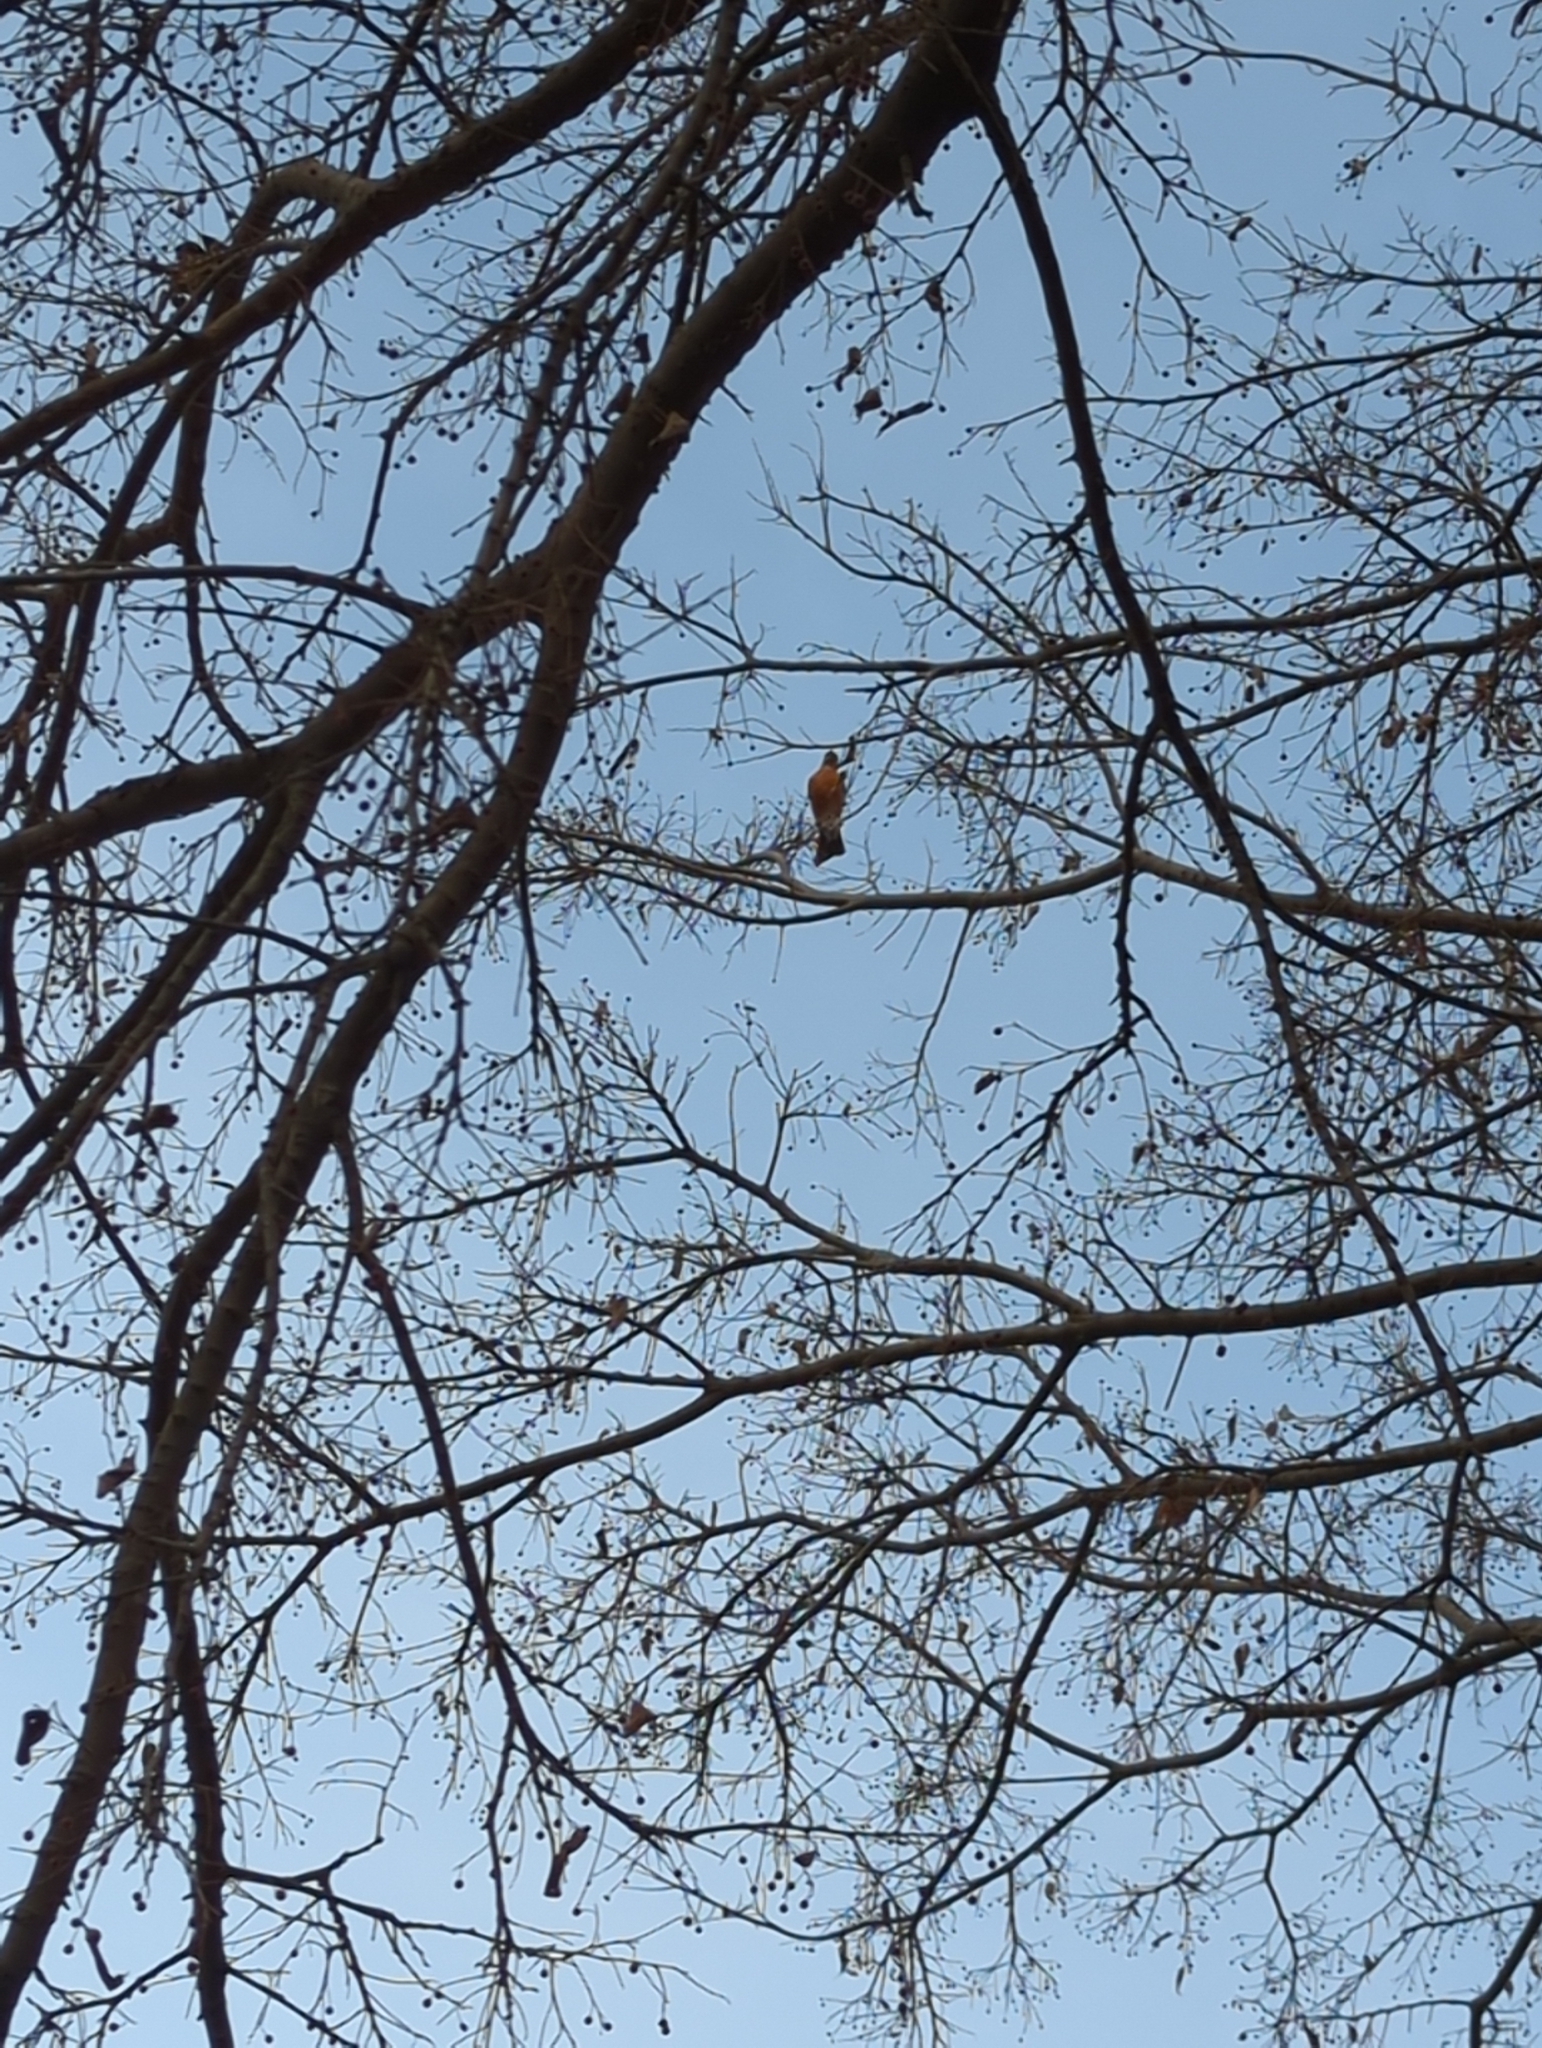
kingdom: Animalia
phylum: Chordata
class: Aves
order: Passeriformes
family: Turdidae
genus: Turdus
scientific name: Turdus migratorius
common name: American robin
